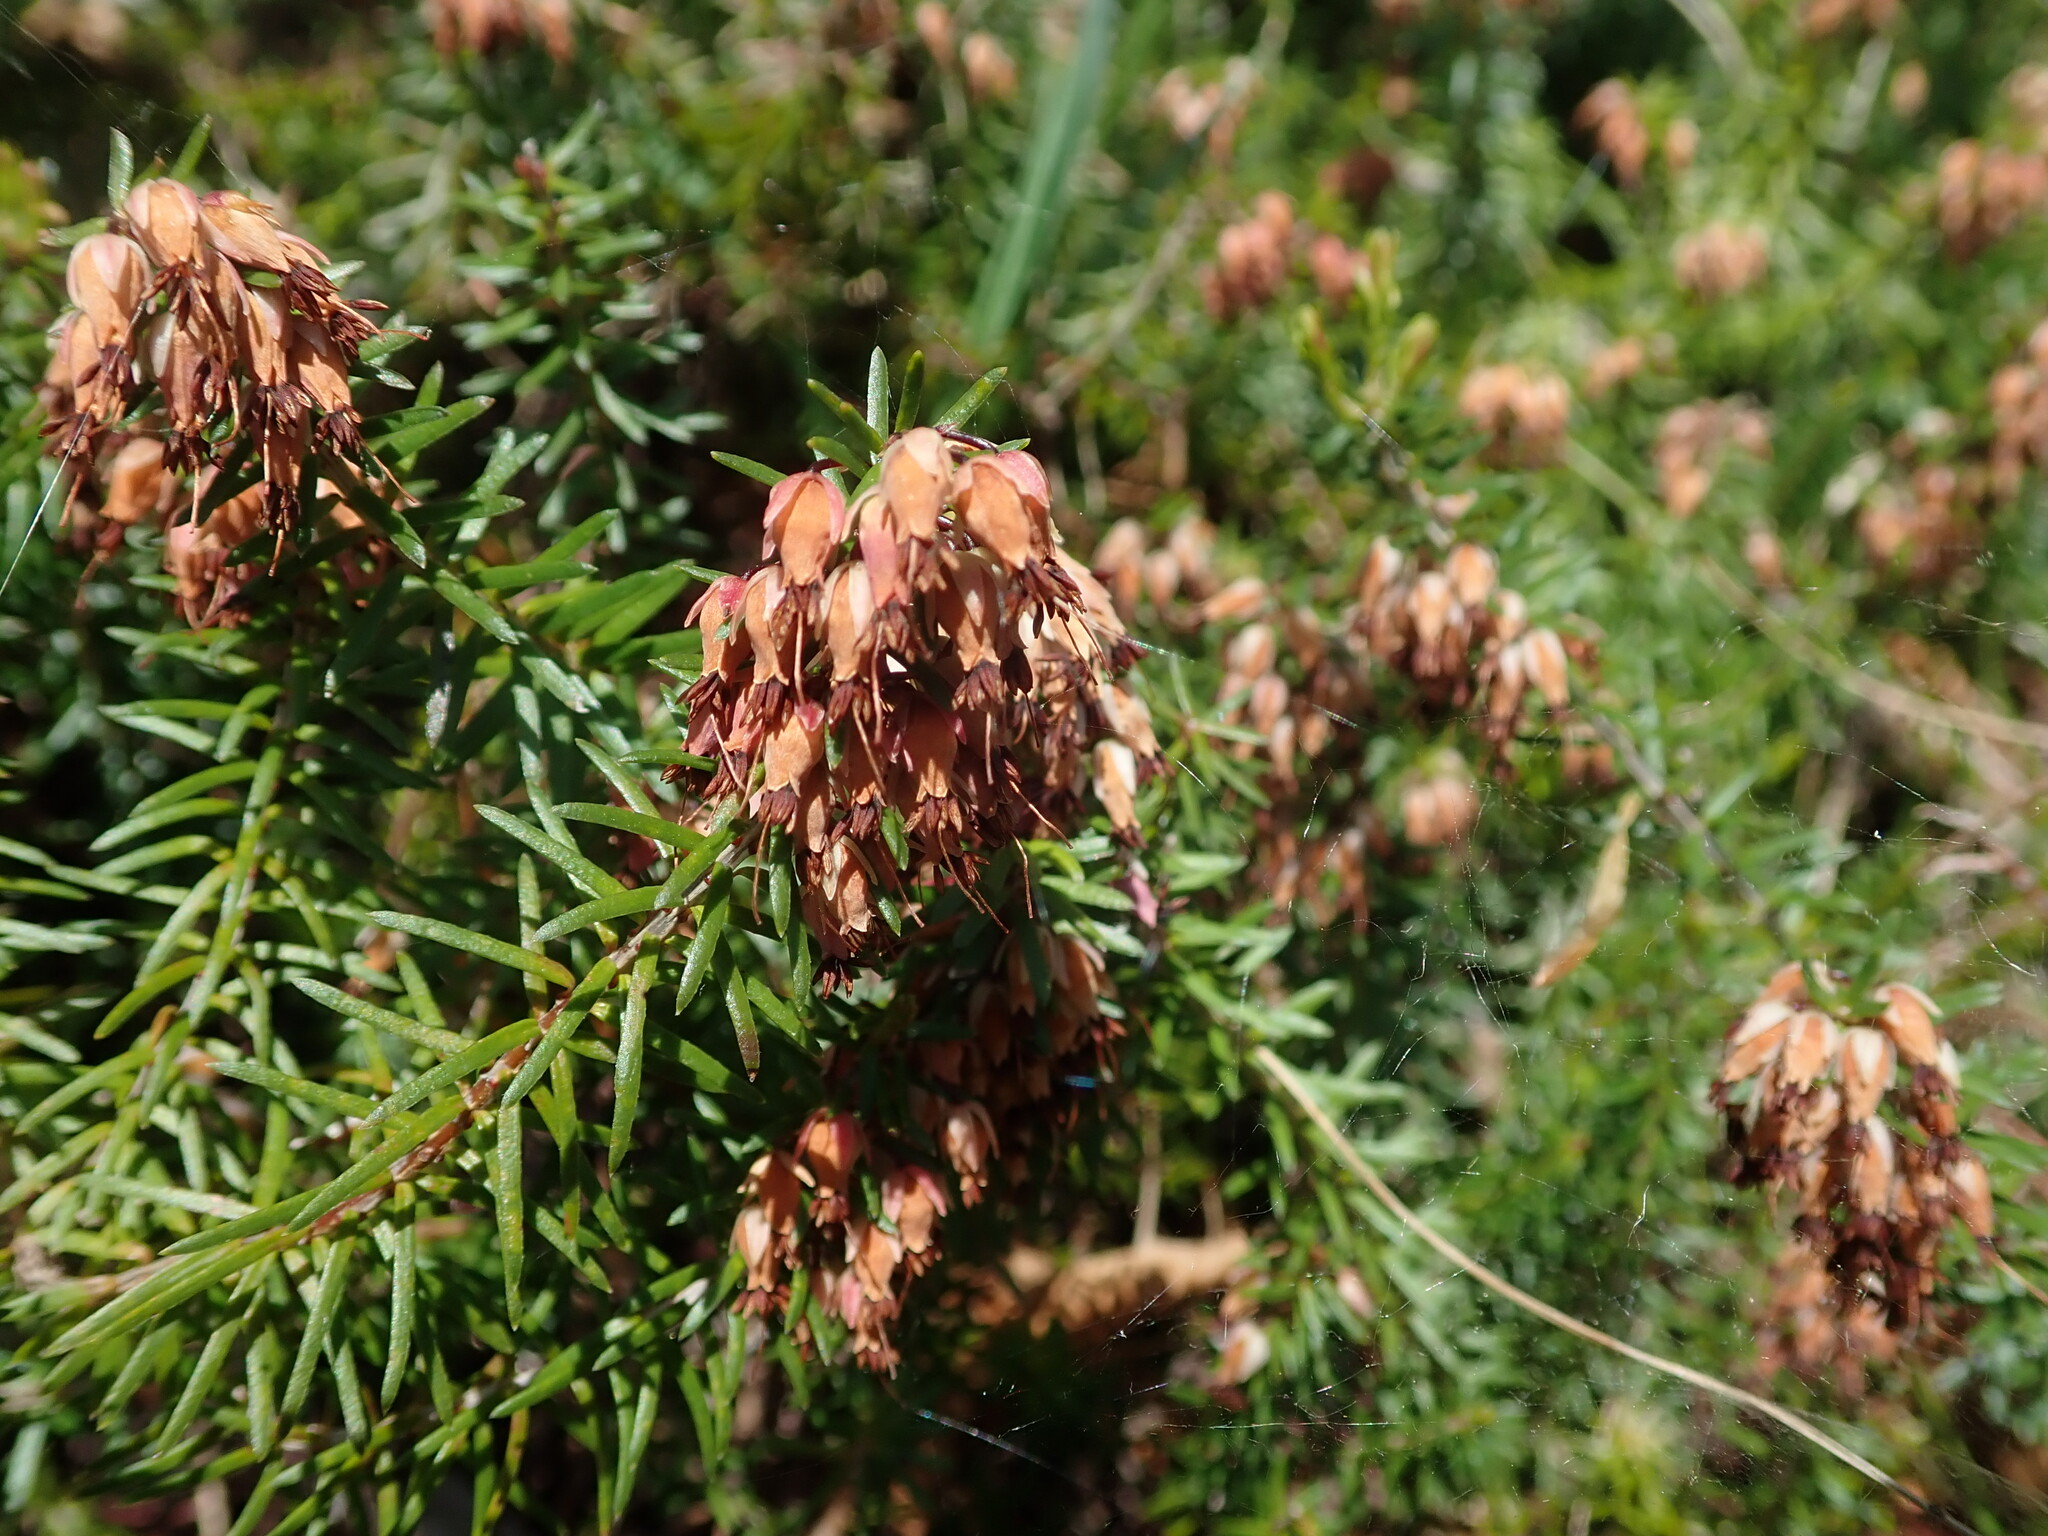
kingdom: Plantae
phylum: Tracheophyta
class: Magnoliopsida
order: Ericales
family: Ericaceae
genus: Erica
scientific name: Erica carnea
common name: Winter heath
